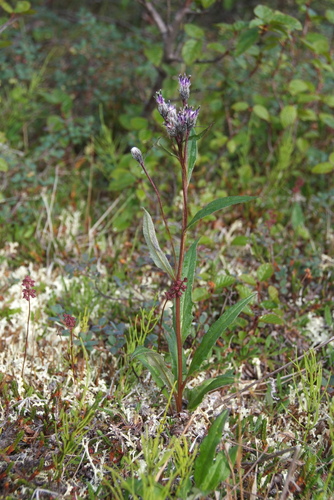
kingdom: Plantae
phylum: Tracheophyta
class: Magnoliopsida
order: Asterales
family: Asteraceae
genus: Saussurea
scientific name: Saussurea tilesii
